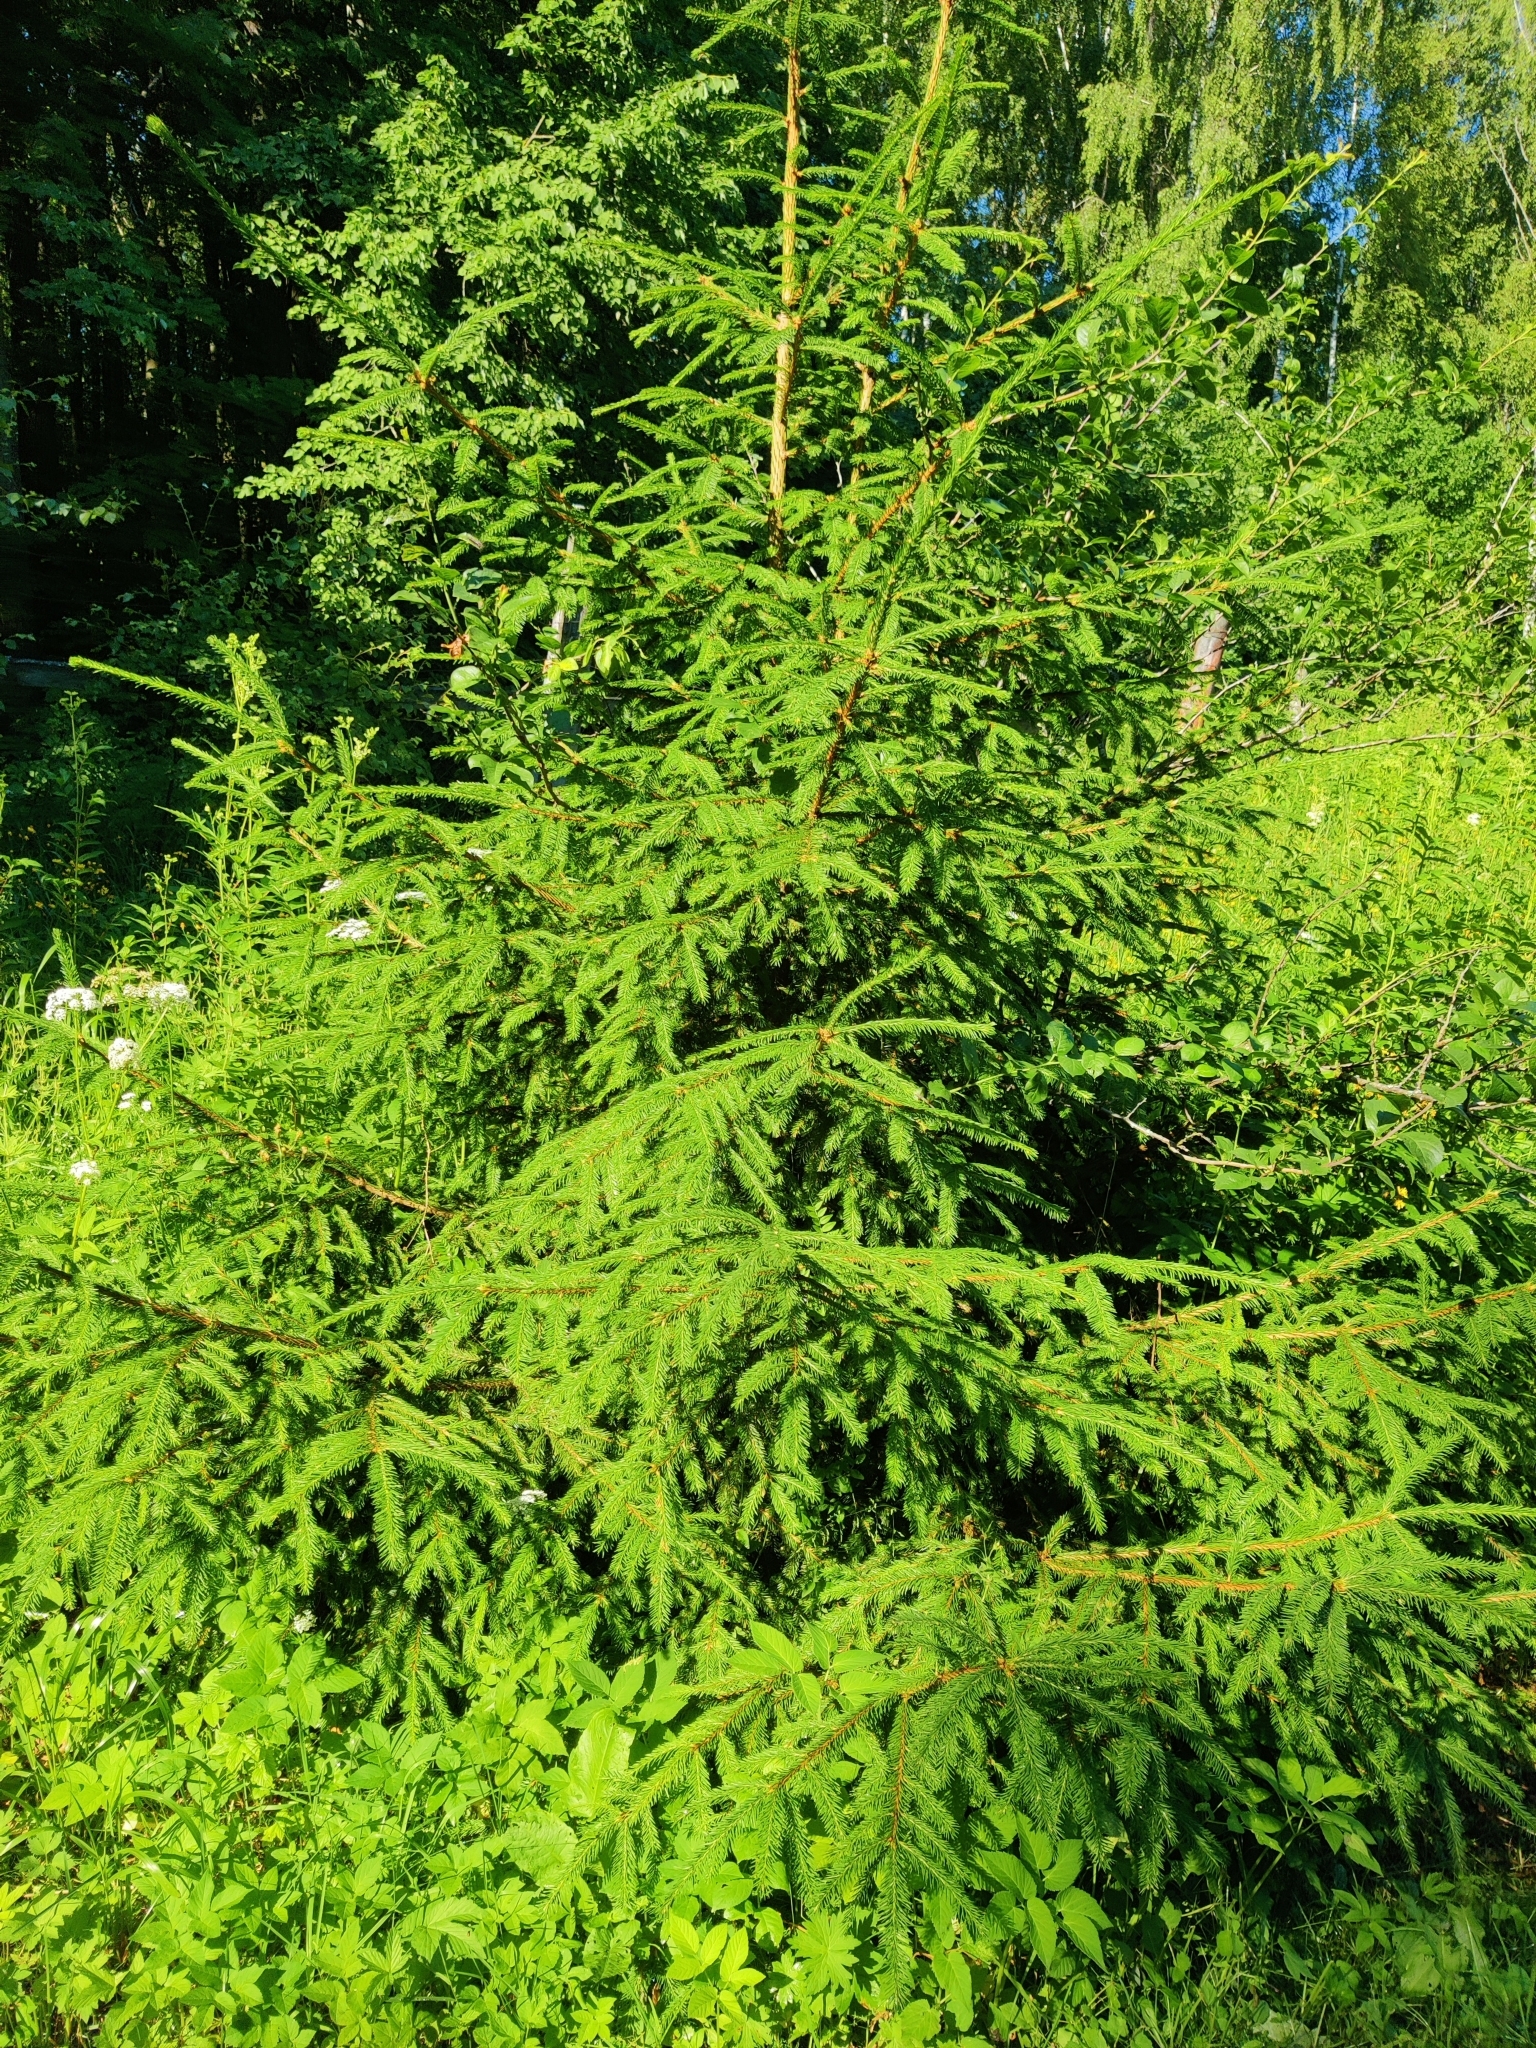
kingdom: Plantae
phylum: Tracheophyta
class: Pinopsida
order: Pinales
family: Pinaceae
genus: Picea
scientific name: Picea abies
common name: Norway spruce
